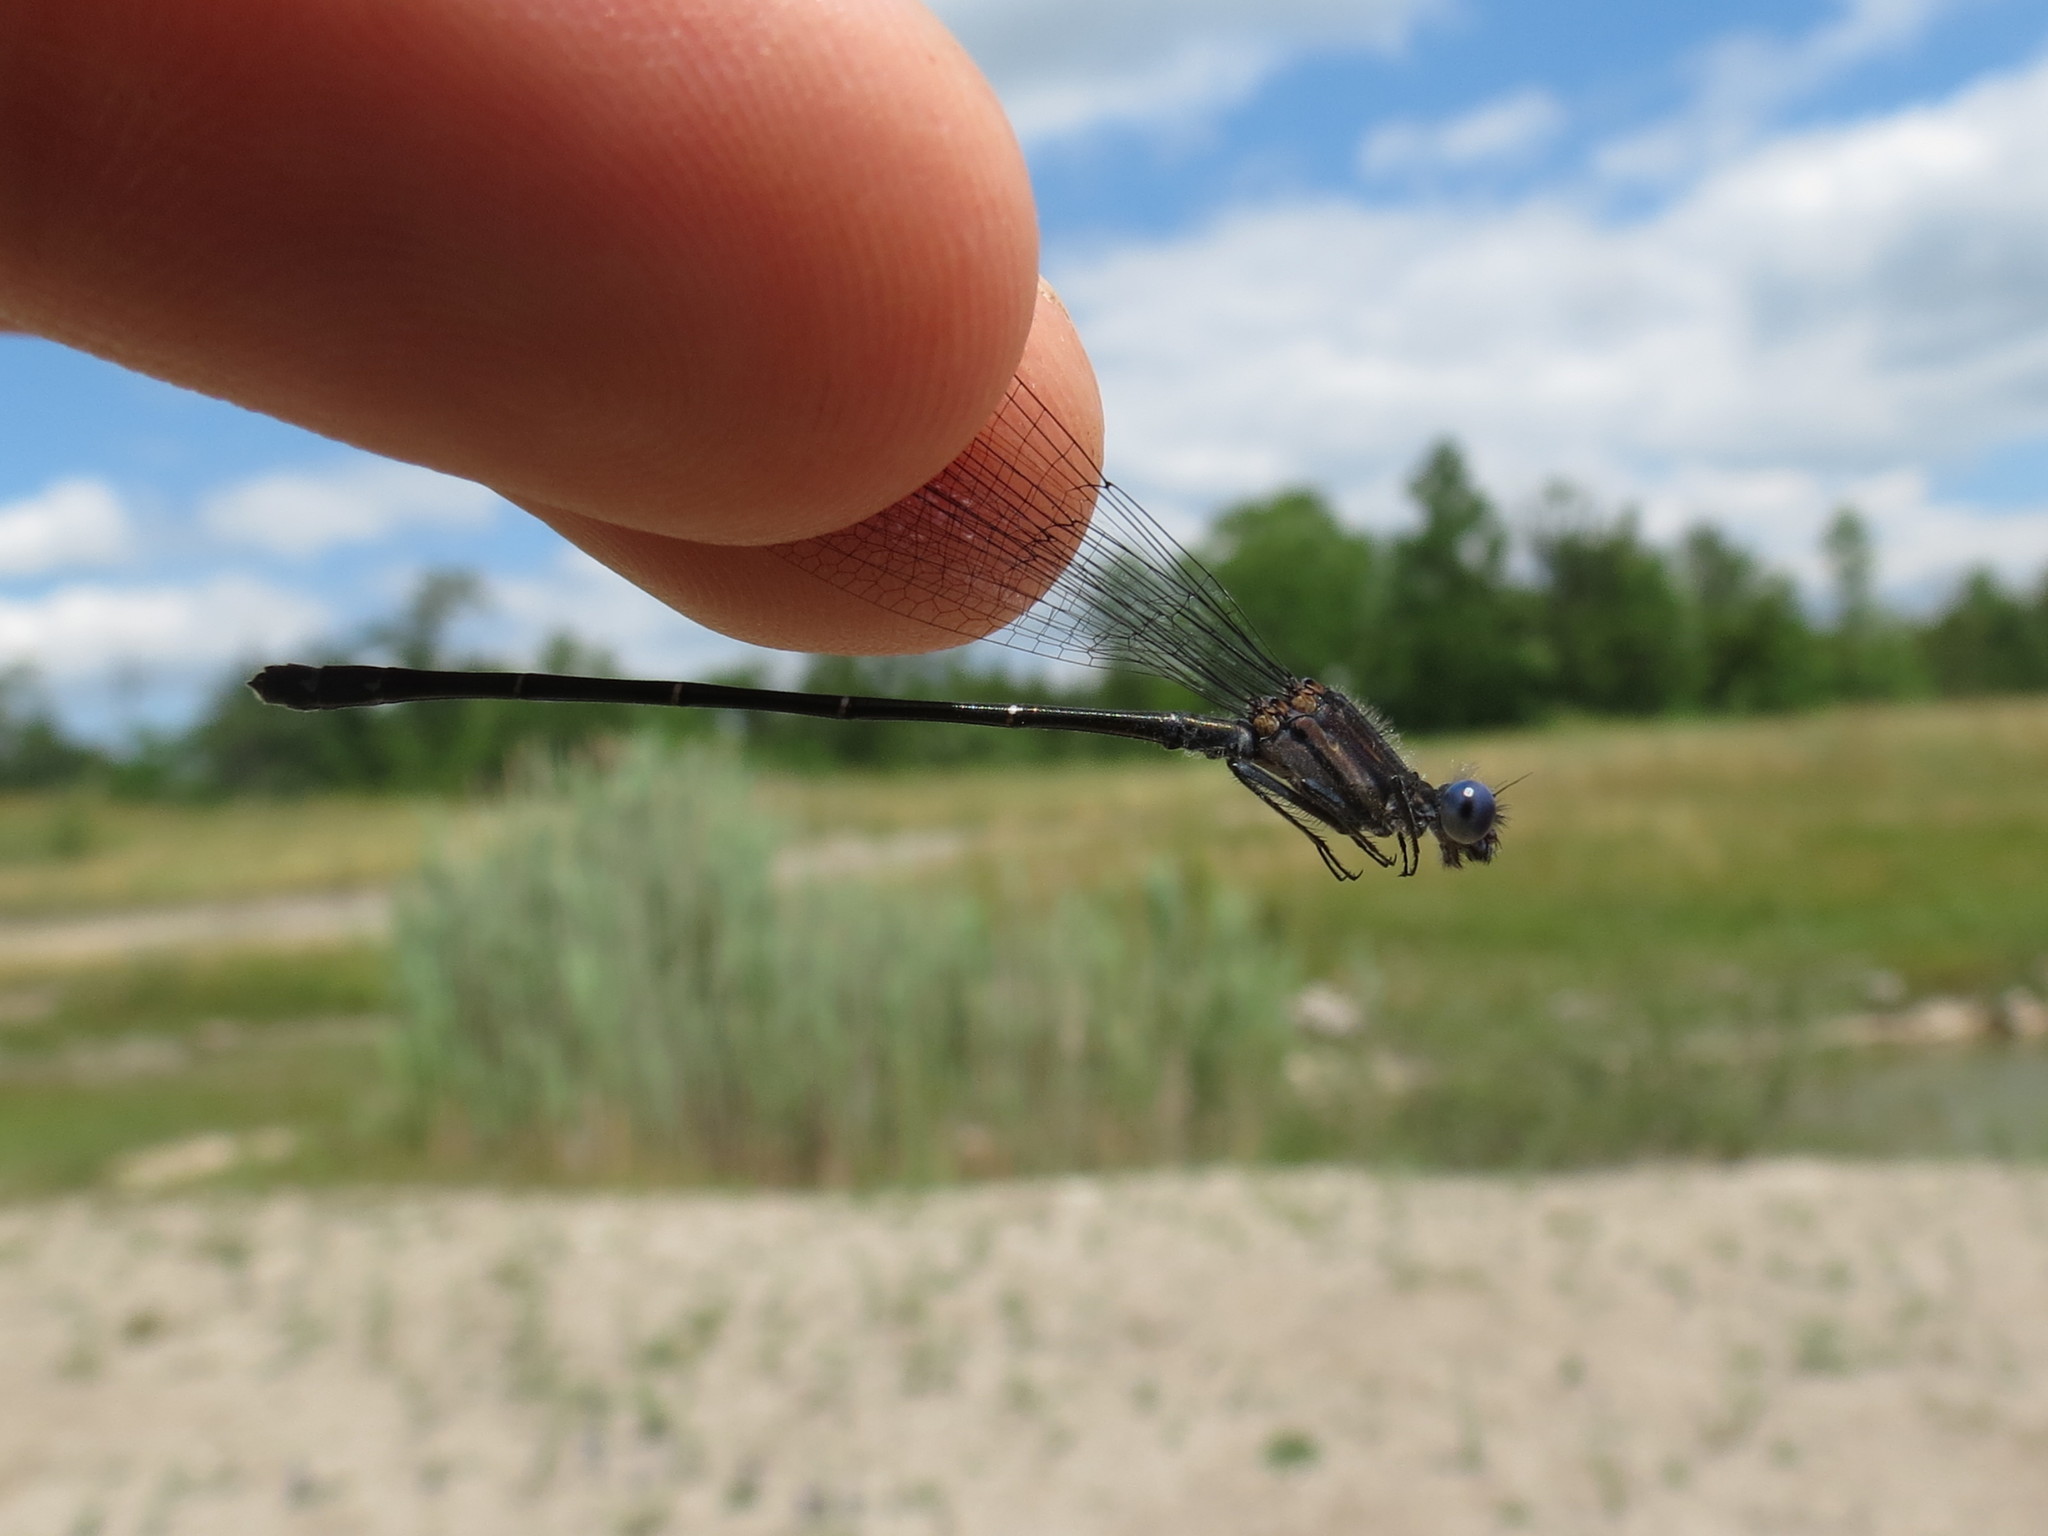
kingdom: Animalia
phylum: Arthropoda
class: Insecta
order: Odonata
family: Coenagrionidae
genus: Argia
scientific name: Argia translata
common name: Dusky dancer
